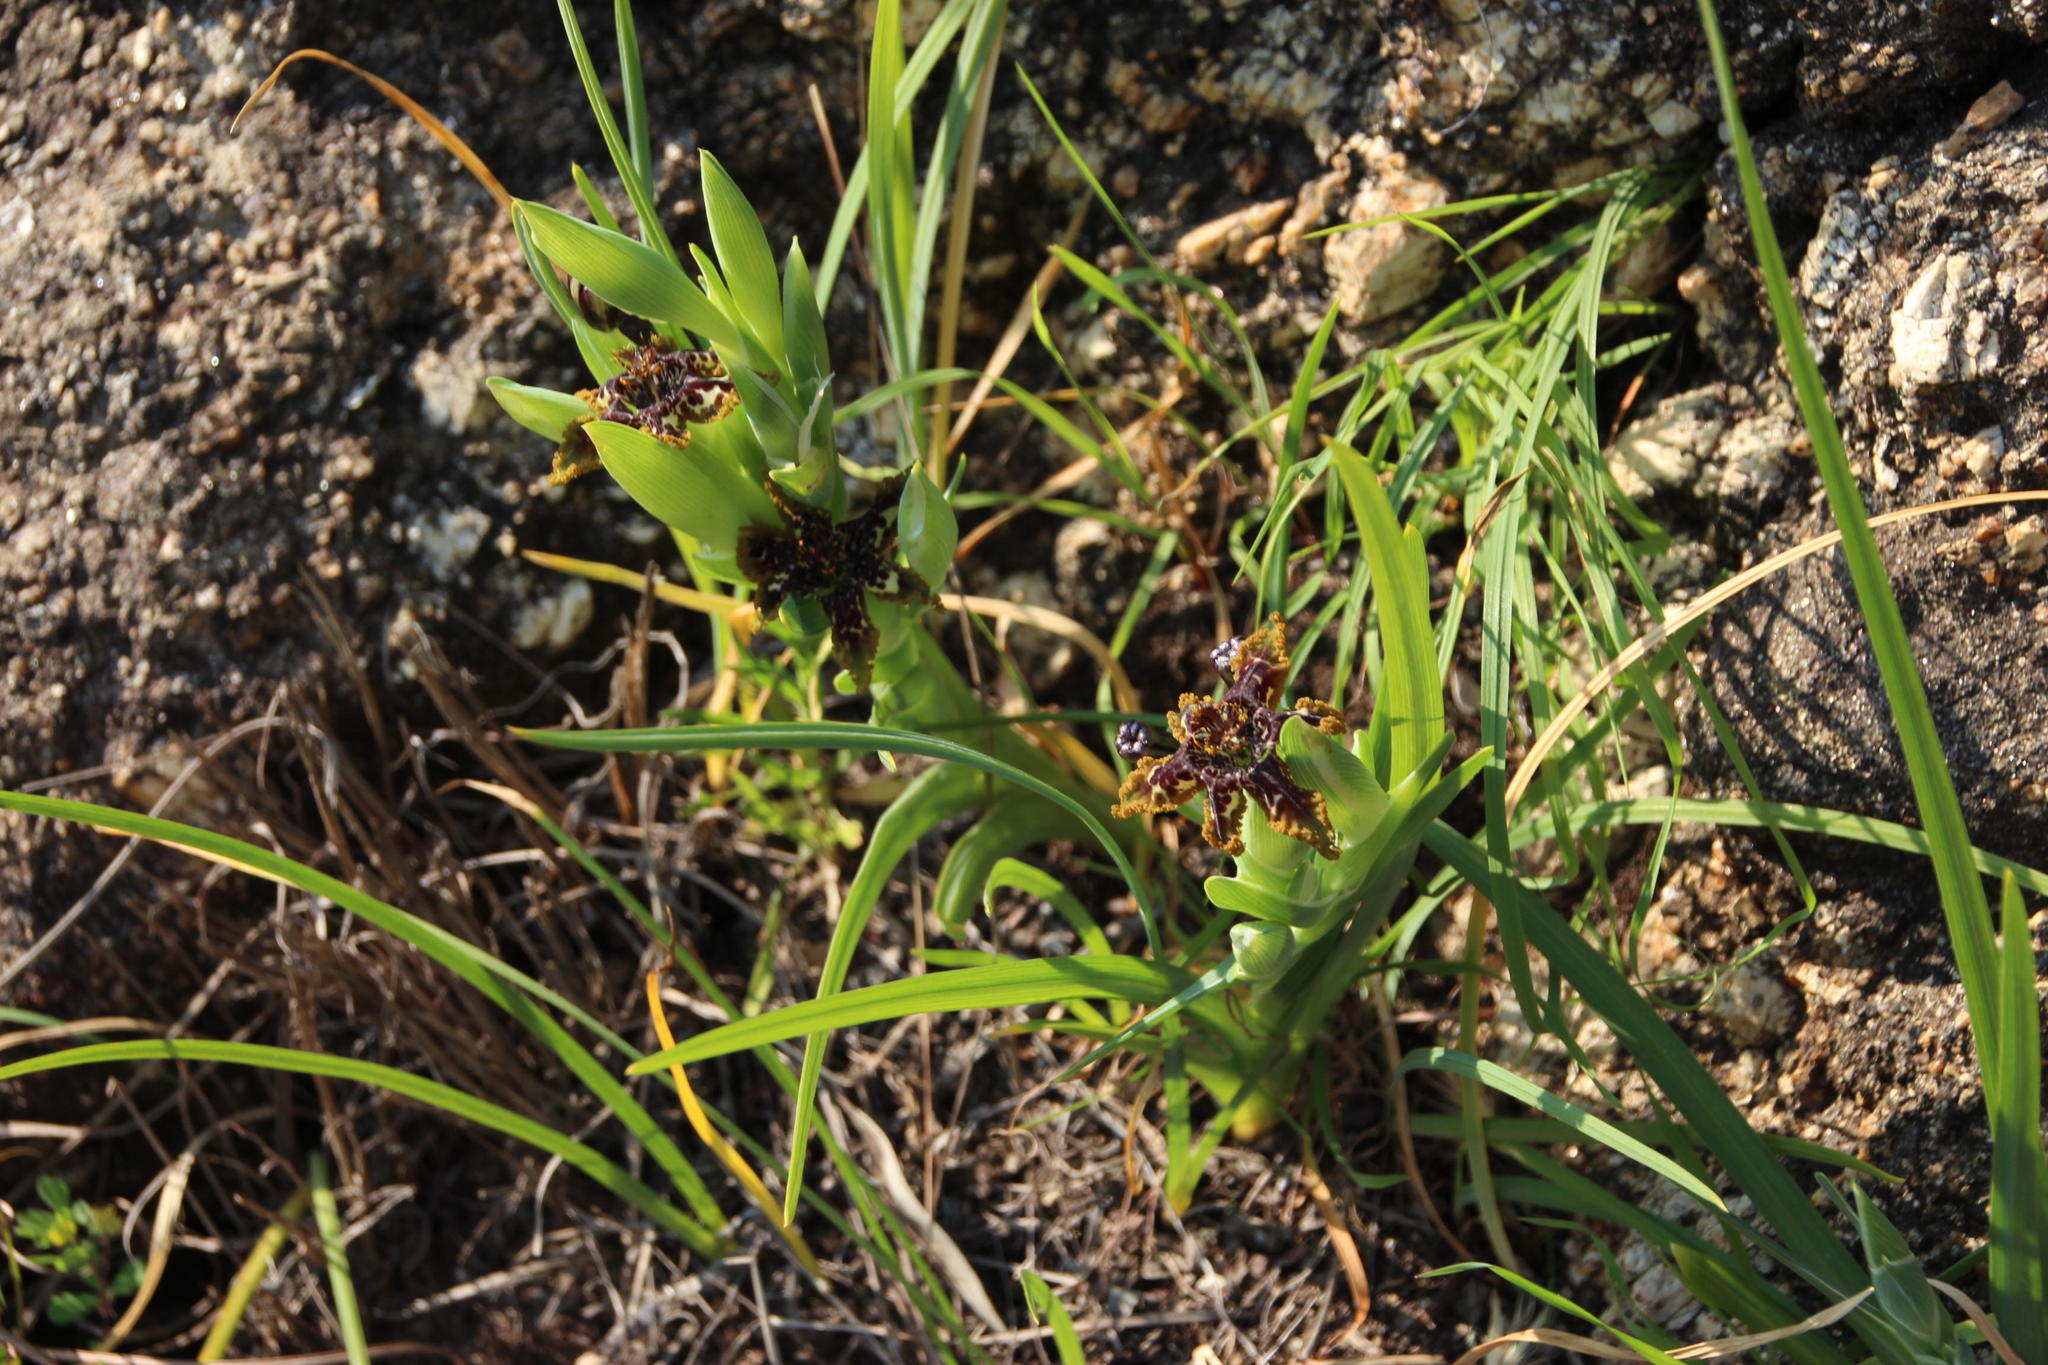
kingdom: Plantae
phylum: Tracheophyta
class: Liliopsida
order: Asparagales
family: Iridaceae
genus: Ferraria
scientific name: Ferraria crispa
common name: Black-flag
